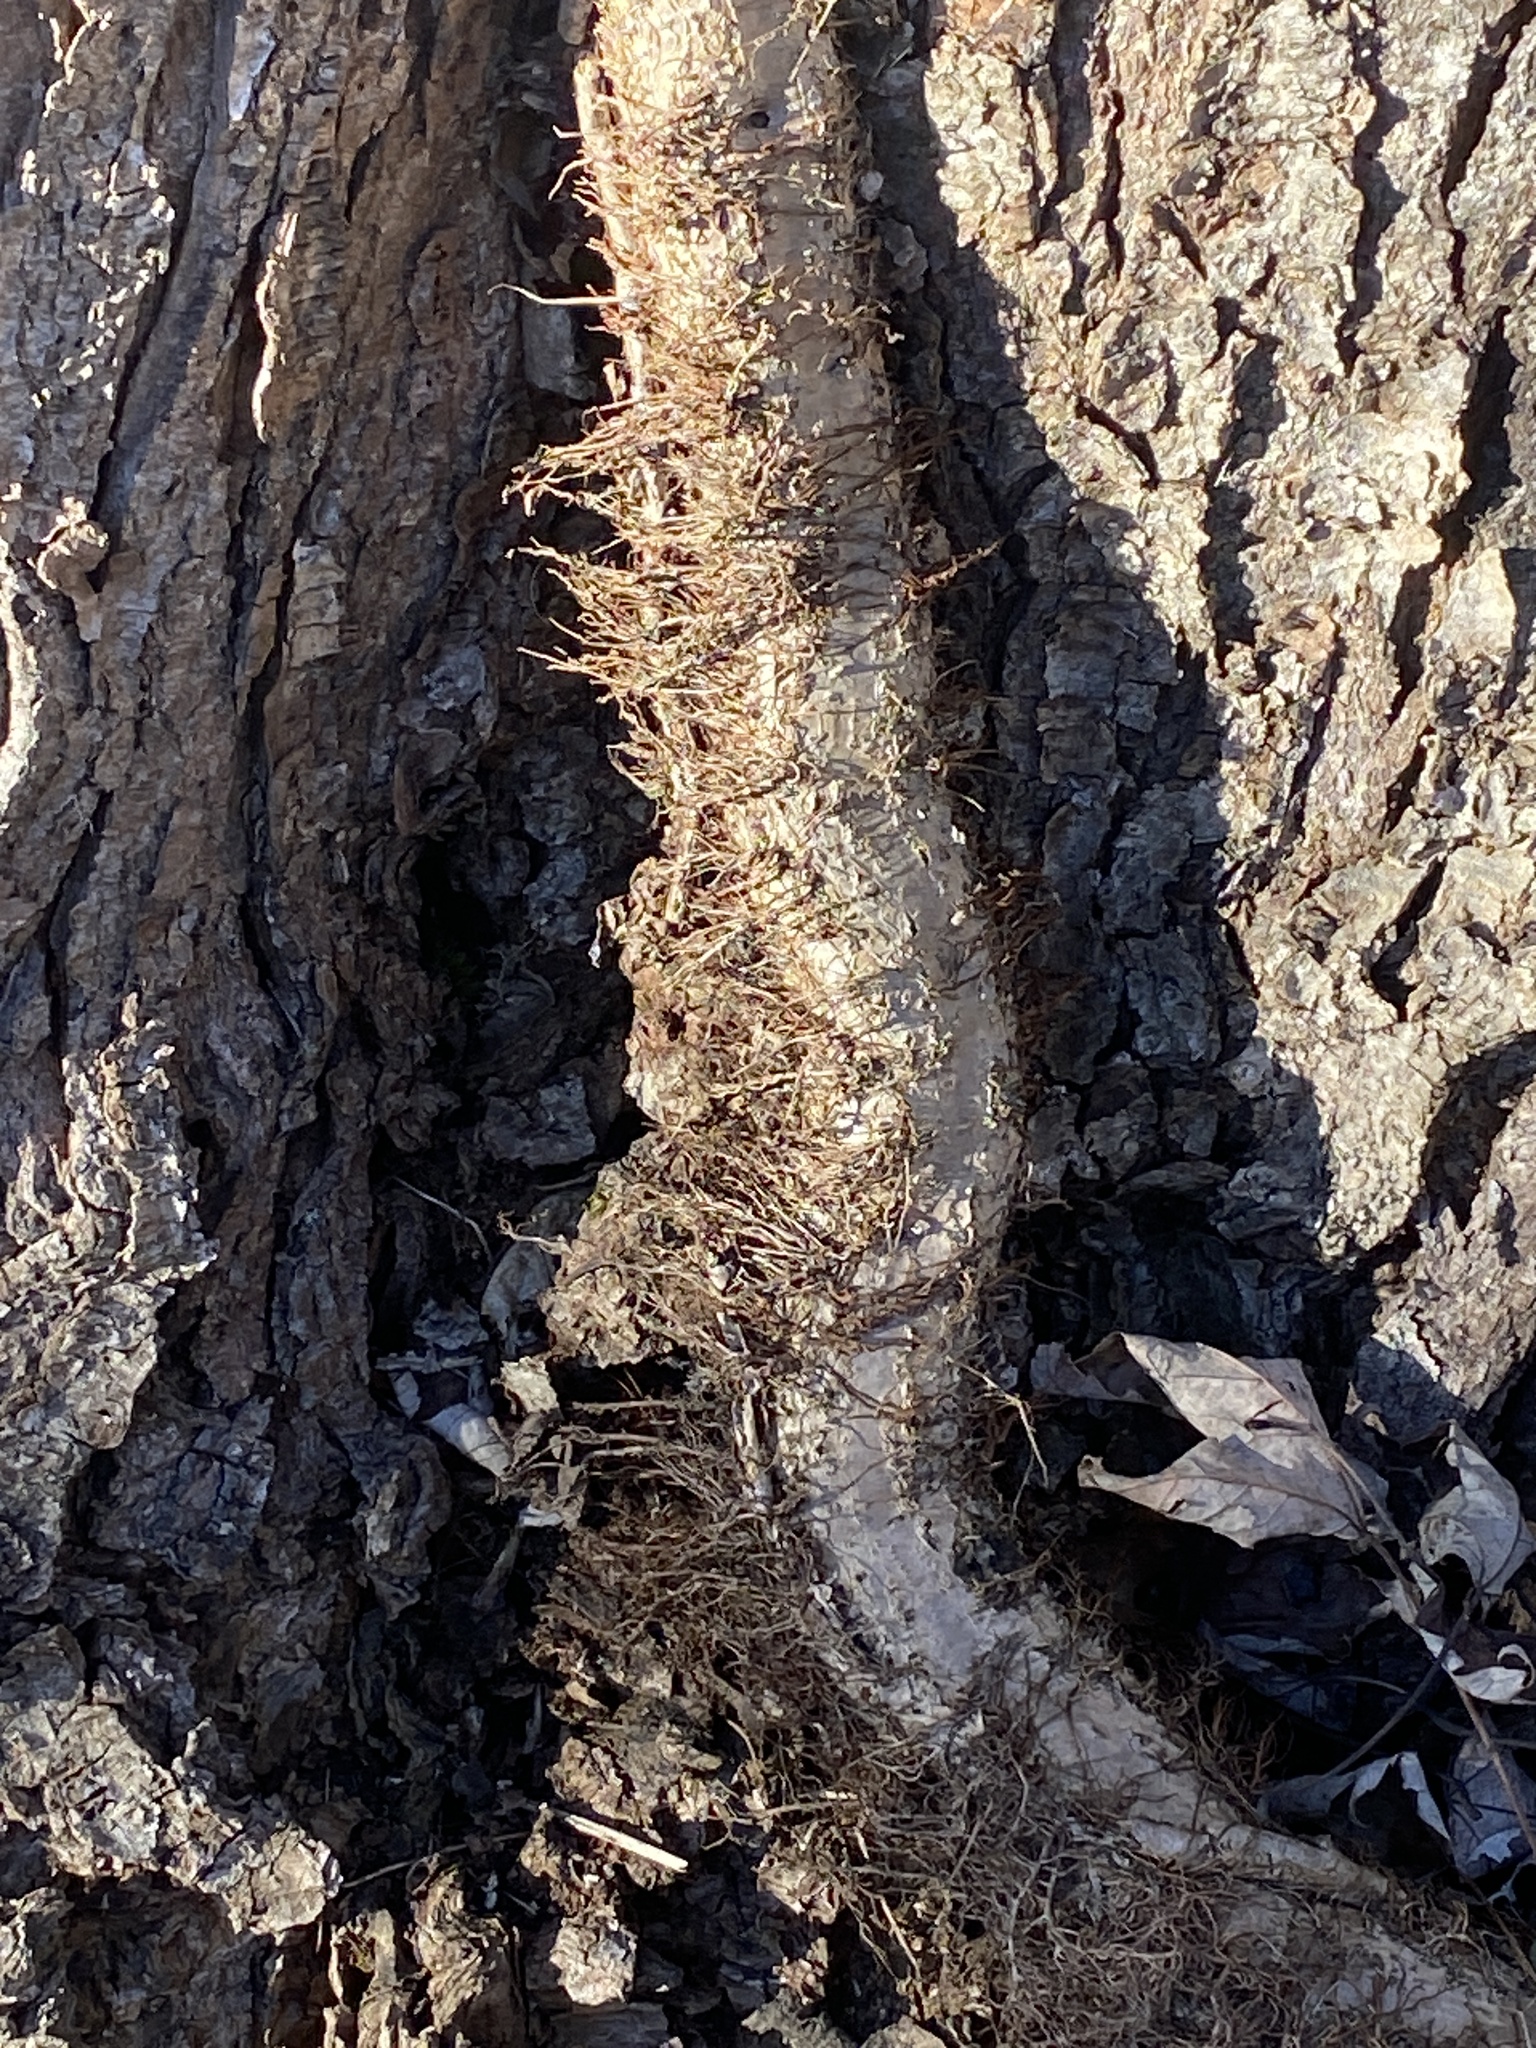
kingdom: Plantae
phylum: Tracheophyta
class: Magnoliopsida
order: Sapindales
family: Anacardiaceae
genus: Toxicodendron
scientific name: Toxicodendron radicans
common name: Poison ivy
